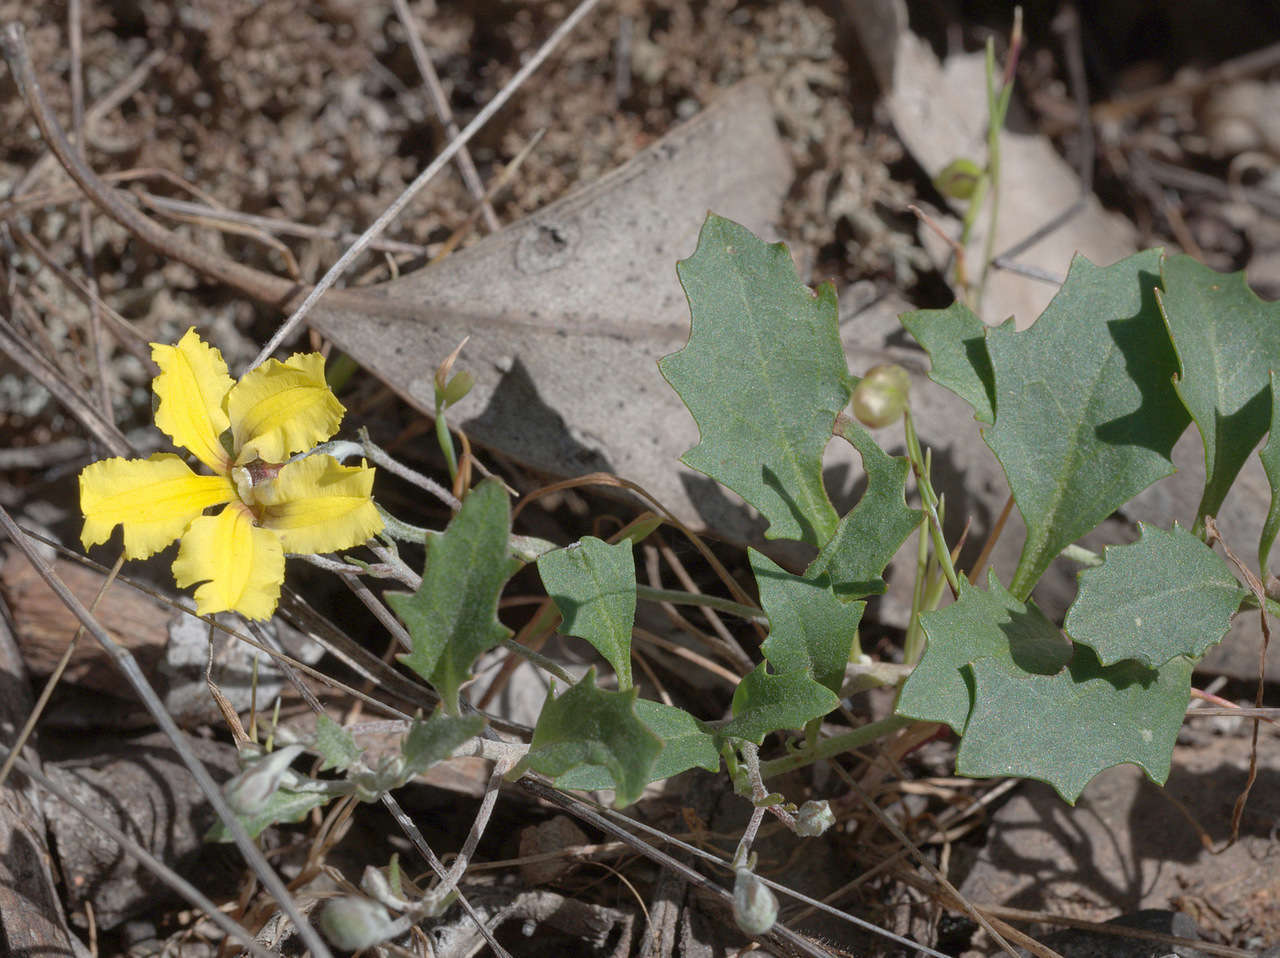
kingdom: Plantae
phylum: Tracheophyta
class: Magnoliopsida
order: Asterales
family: Goodeniaceae
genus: Goodenia
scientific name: Goodenia hederacea
